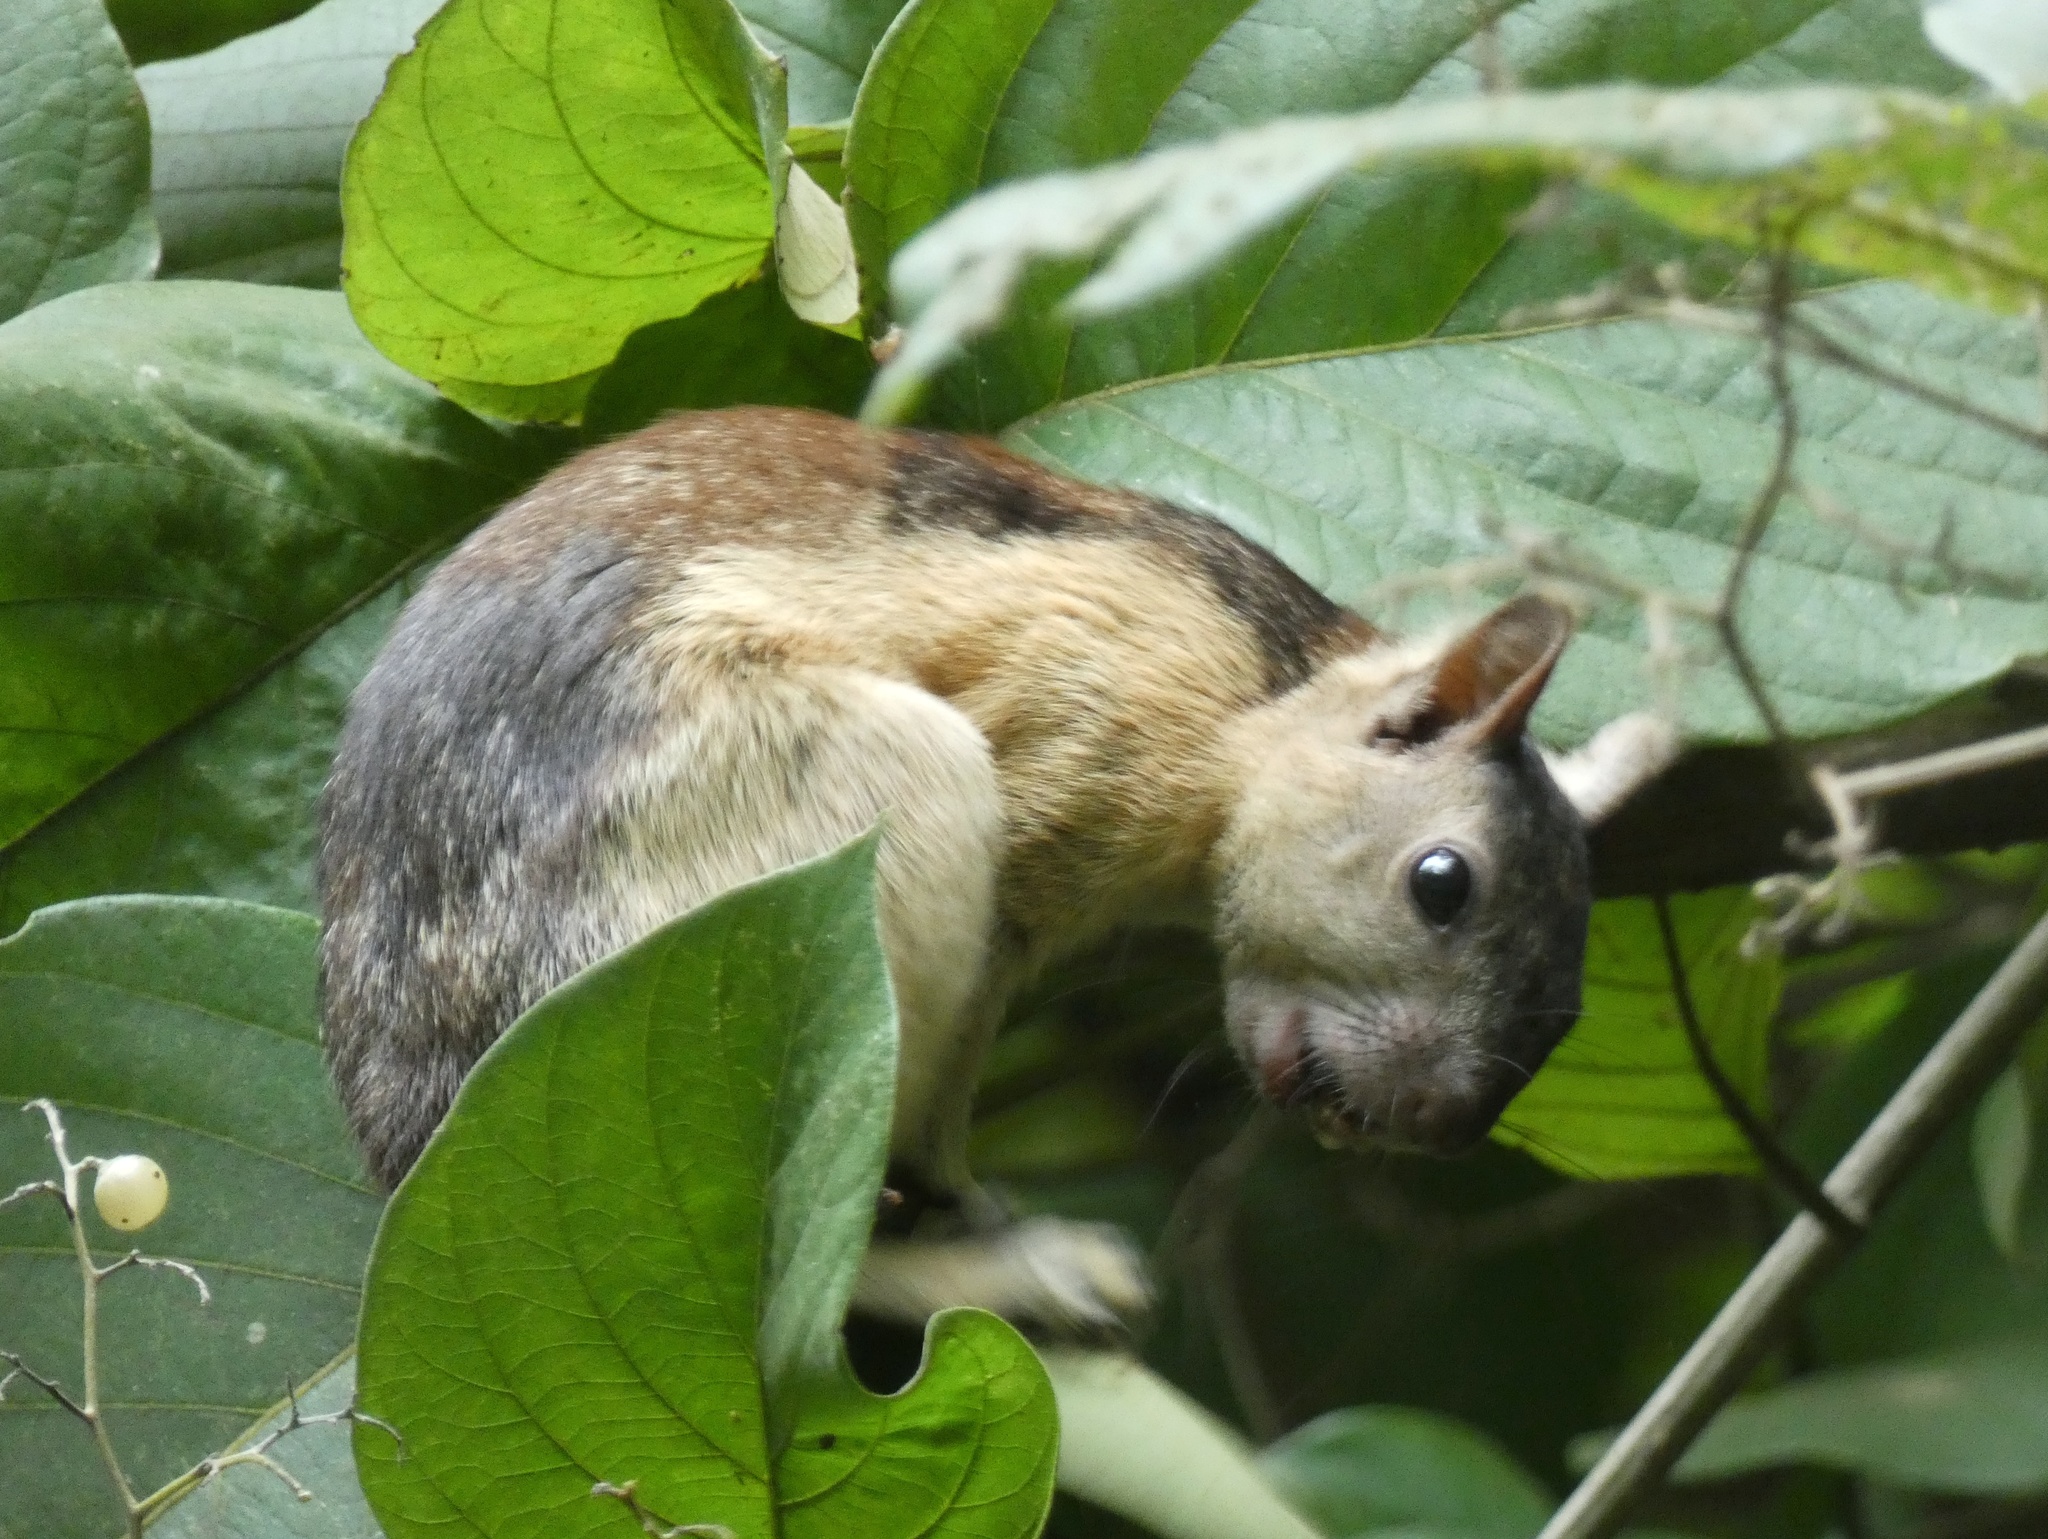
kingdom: Animalia
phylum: Chordata
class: Mammalia
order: Rodentia
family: Sciuridae
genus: Sciurus
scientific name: Sciurus variegatoides
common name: Variegated squirrel
